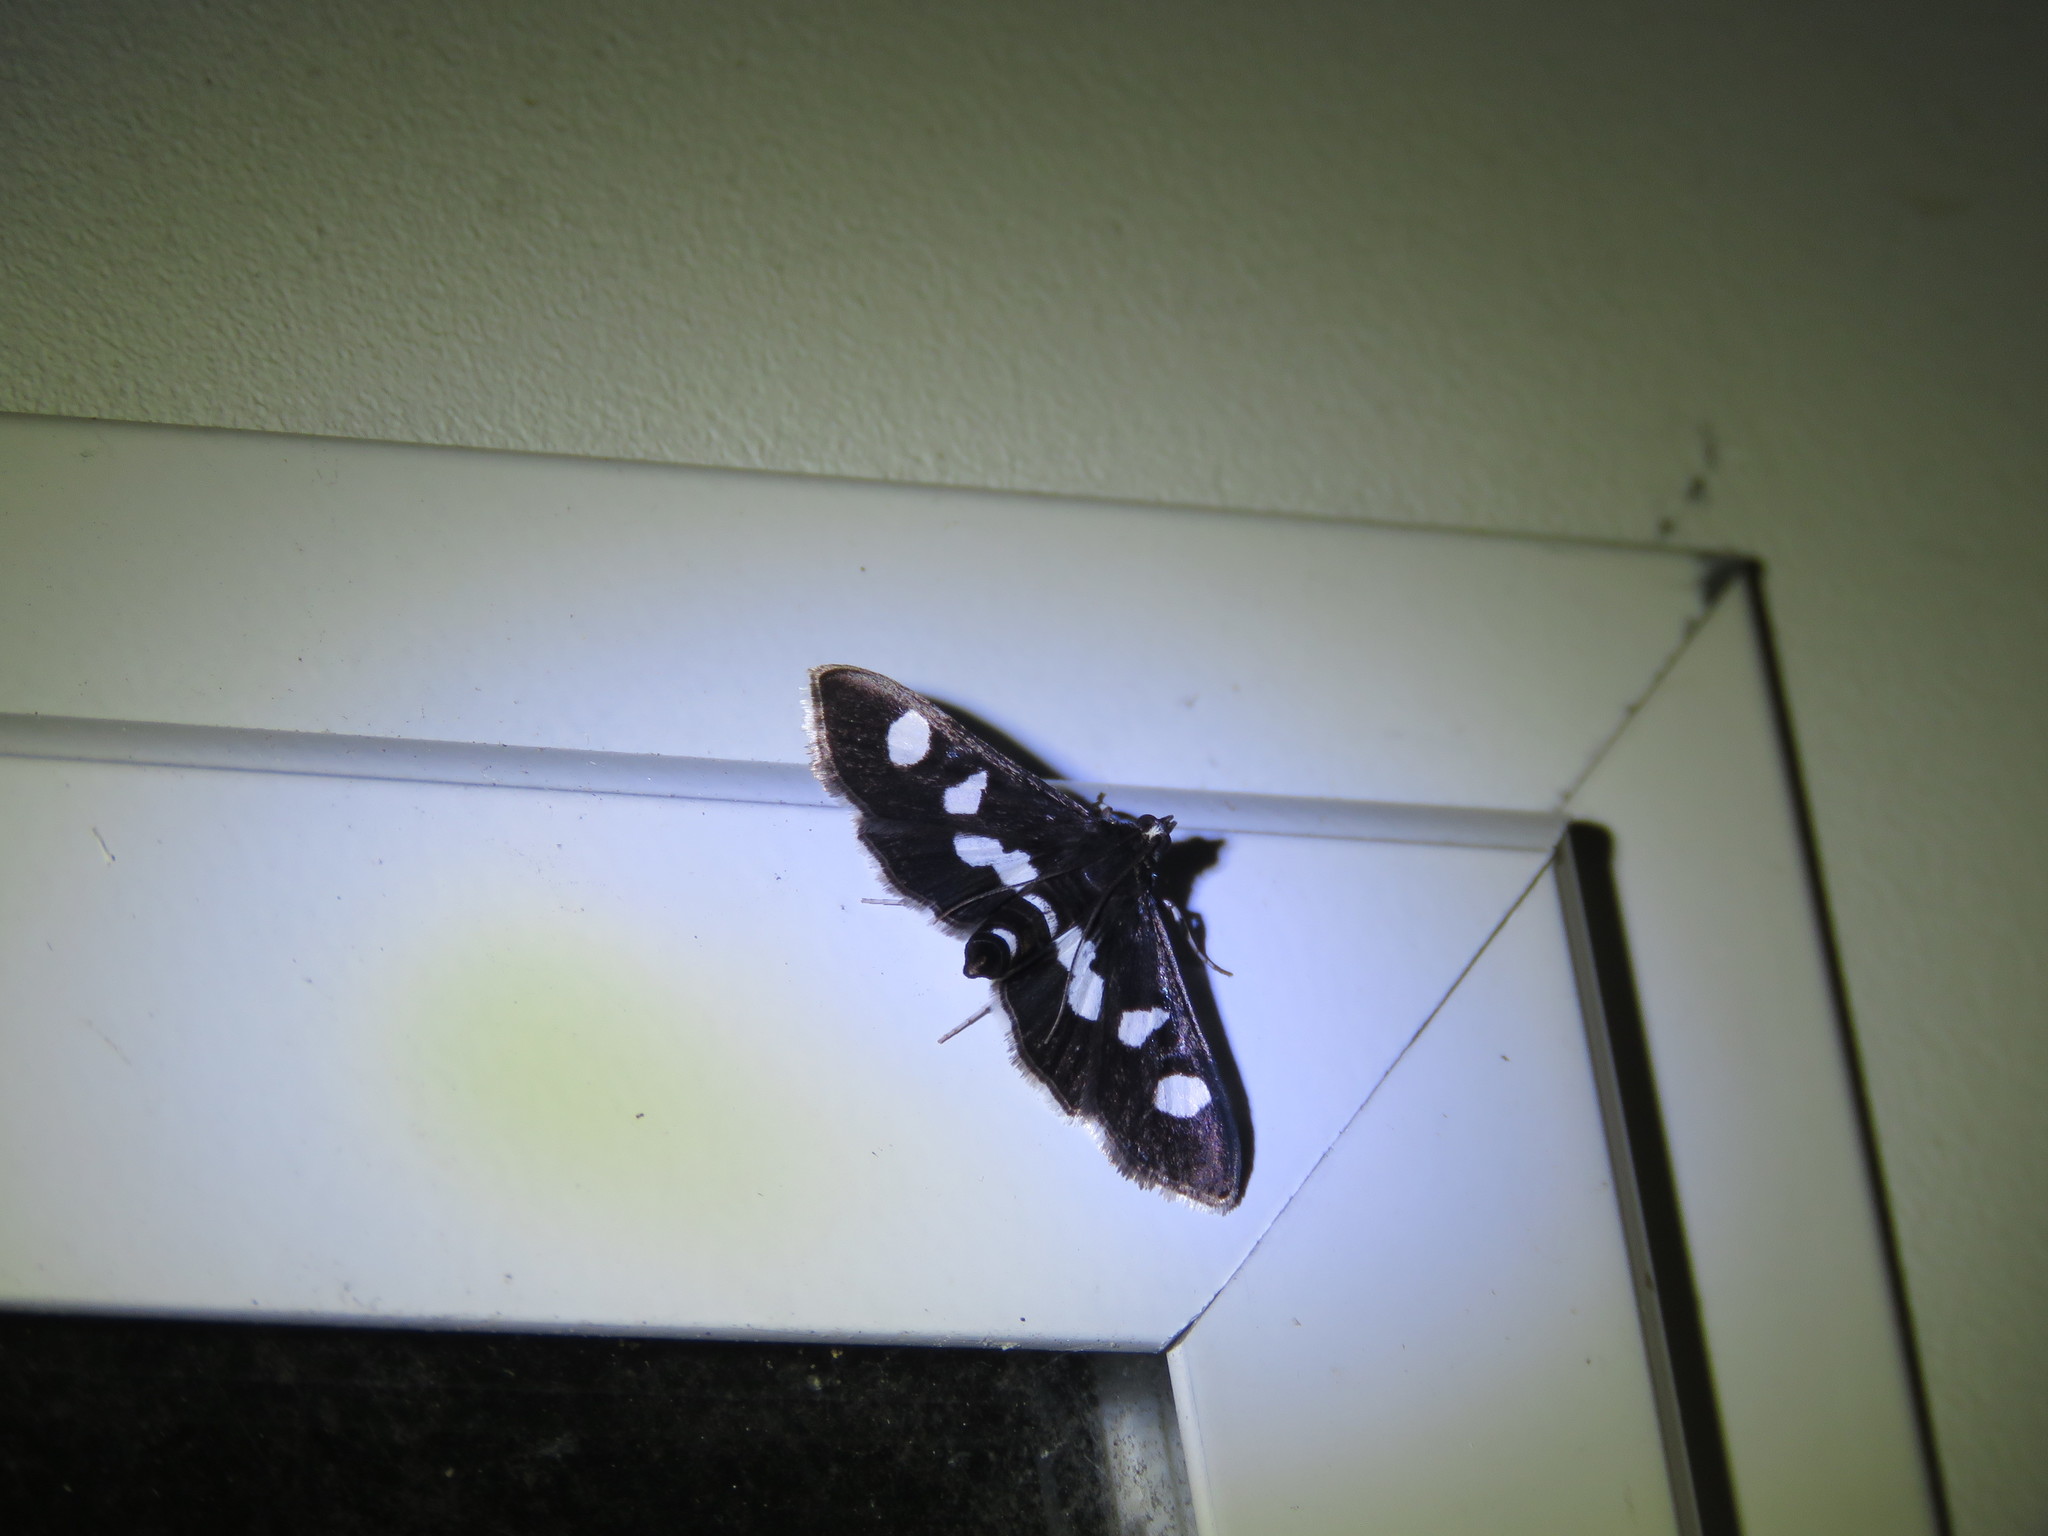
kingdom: Animalia
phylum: Arthropoda
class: Insecta
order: Lepidoptera
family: Crambidae
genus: Desmia
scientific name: Desmia
